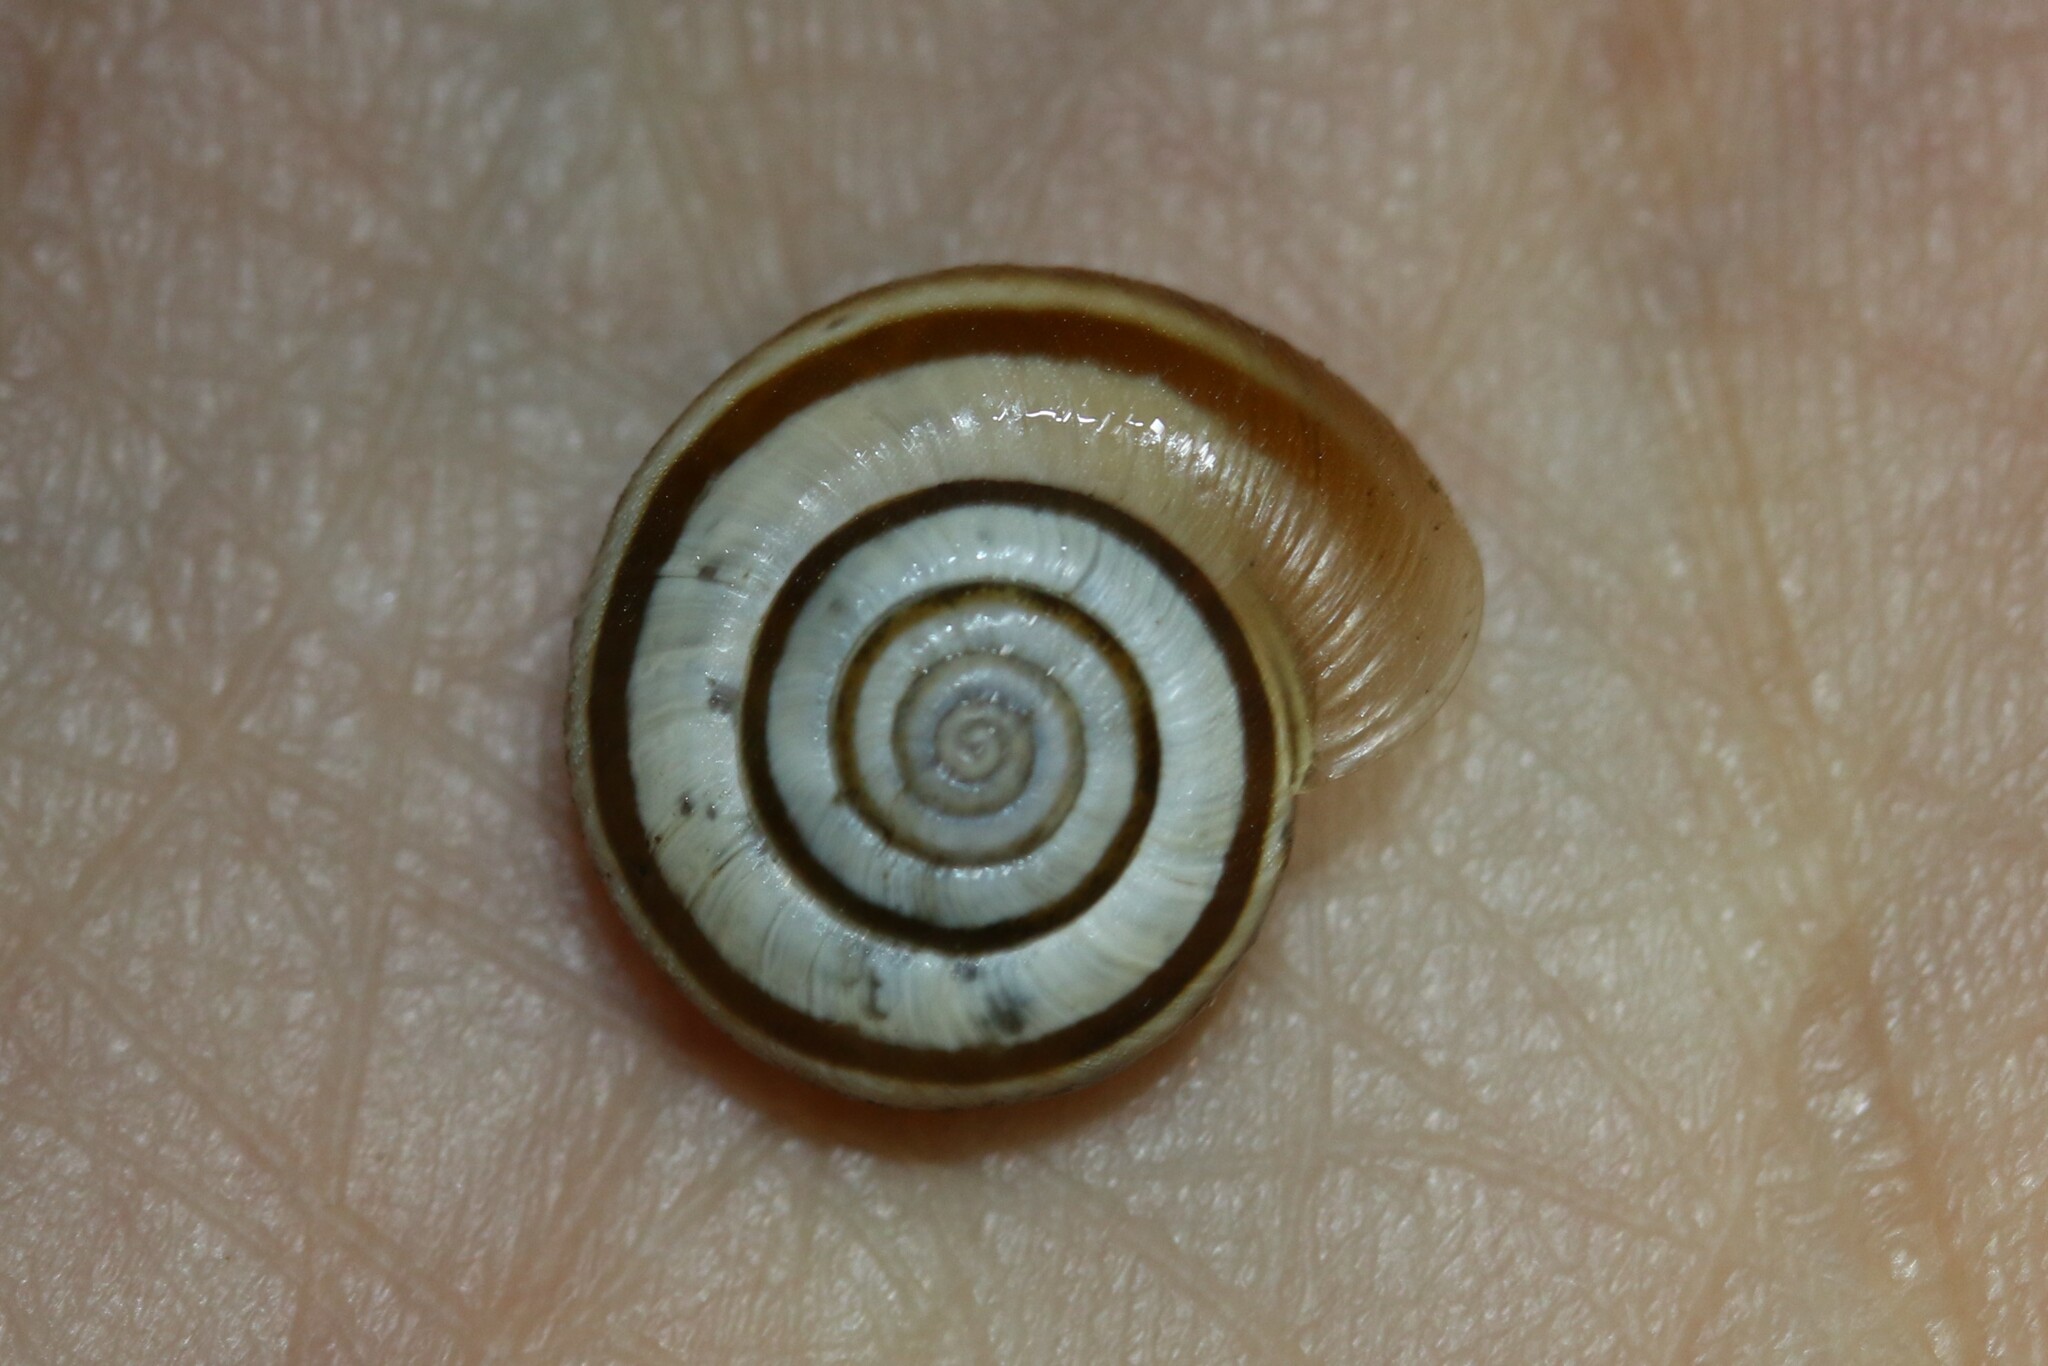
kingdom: Animalia
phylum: Mollusca
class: Gastropoda
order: Stylommatophora
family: Geomitridae
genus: Helicella
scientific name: Helicella itala
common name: Heath snail
